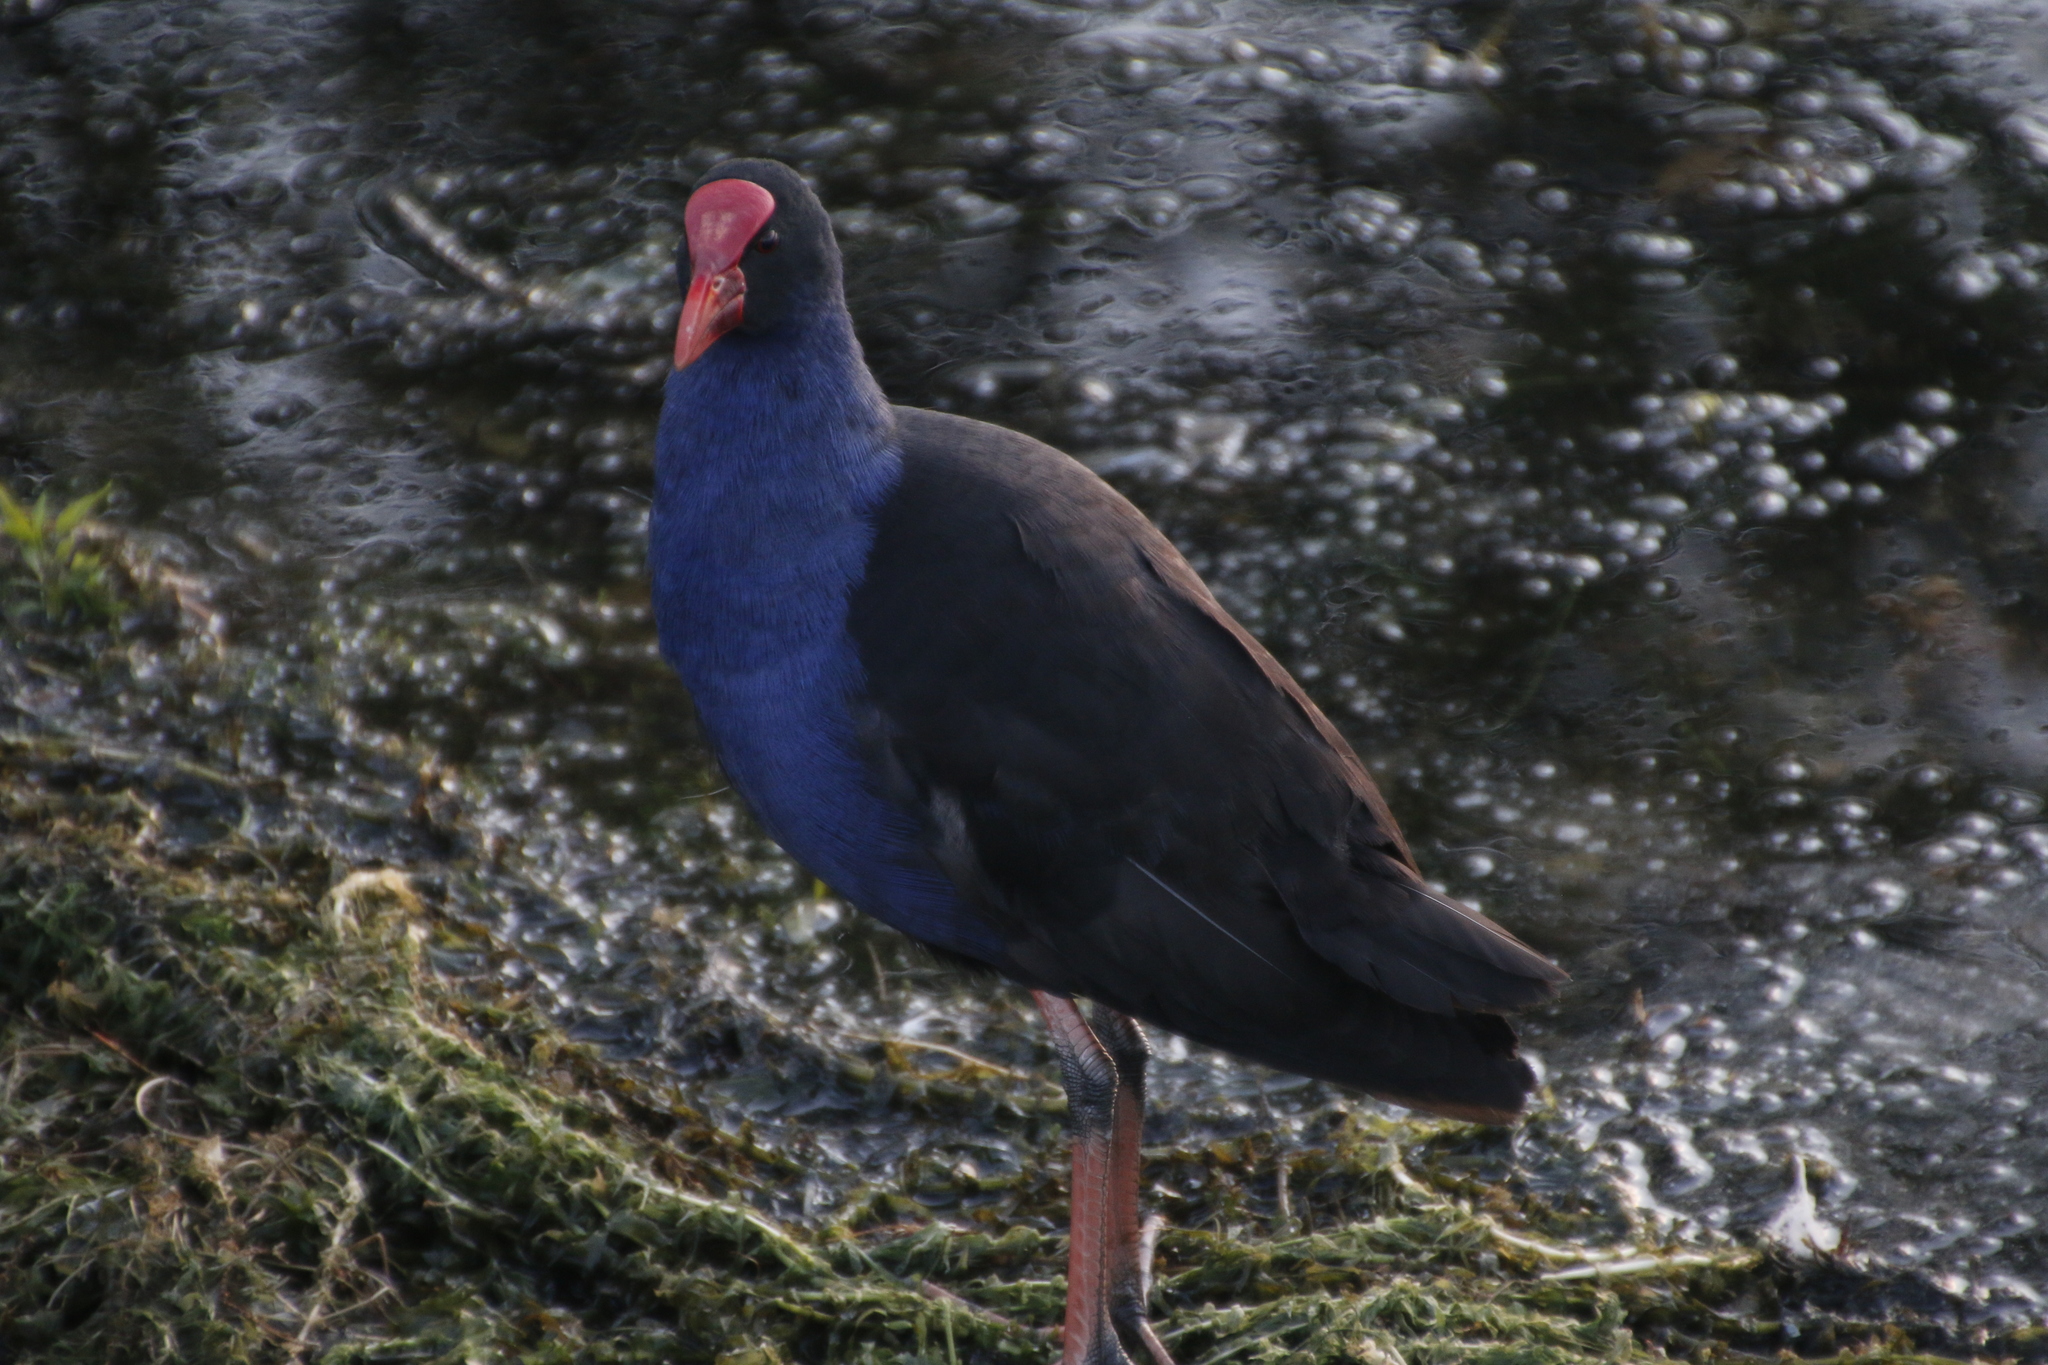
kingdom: Animalia
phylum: Chordata
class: Aves
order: Gruiformes
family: Rallidae
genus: Porphyrio
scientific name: Porphyrio melanotus
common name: Australasian swamphen
